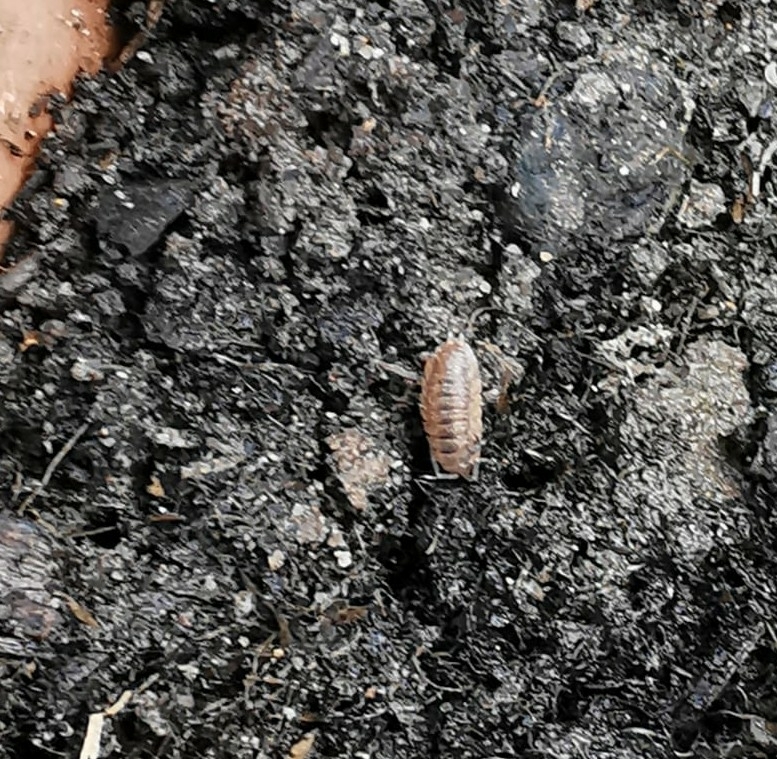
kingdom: Animalia
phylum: Arthropoda
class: Malacostraca
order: Isopoda
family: Porcellionidae
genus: Porcellio
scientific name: Porcellio scaber
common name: Common rough woodlouse
